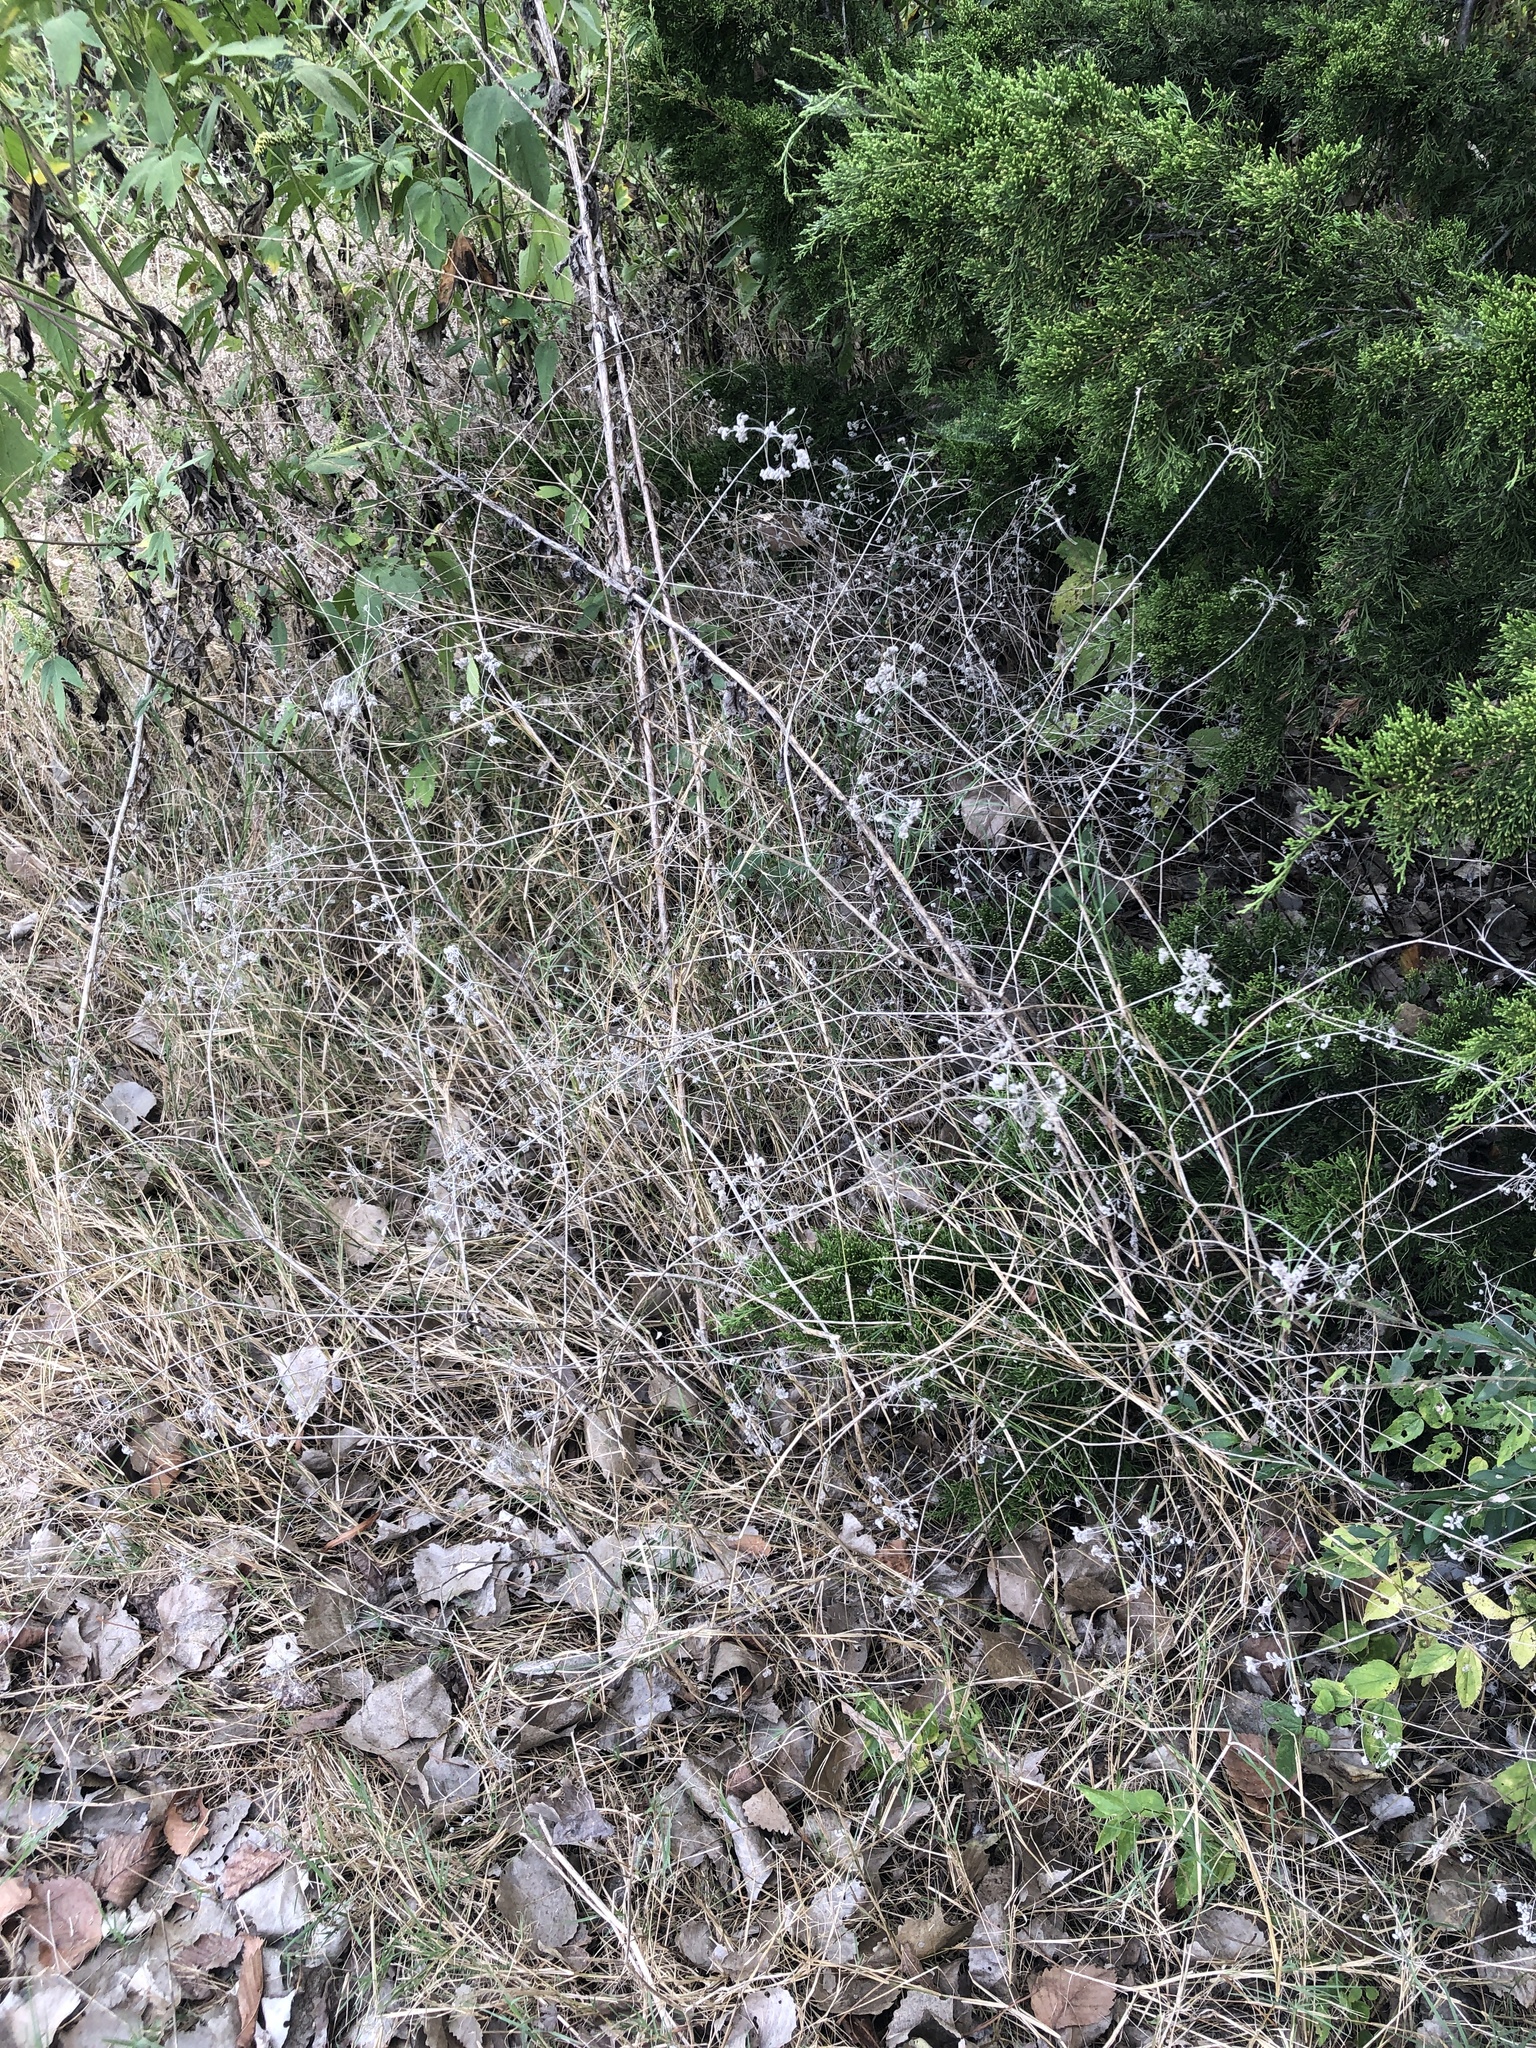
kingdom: Plantae
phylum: Tracheophyta
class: Magnoliopsida
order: Apiales
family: Apiaceae
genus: Torilis
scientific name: Torilis arvensis
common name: Spreading hedge-parsley
